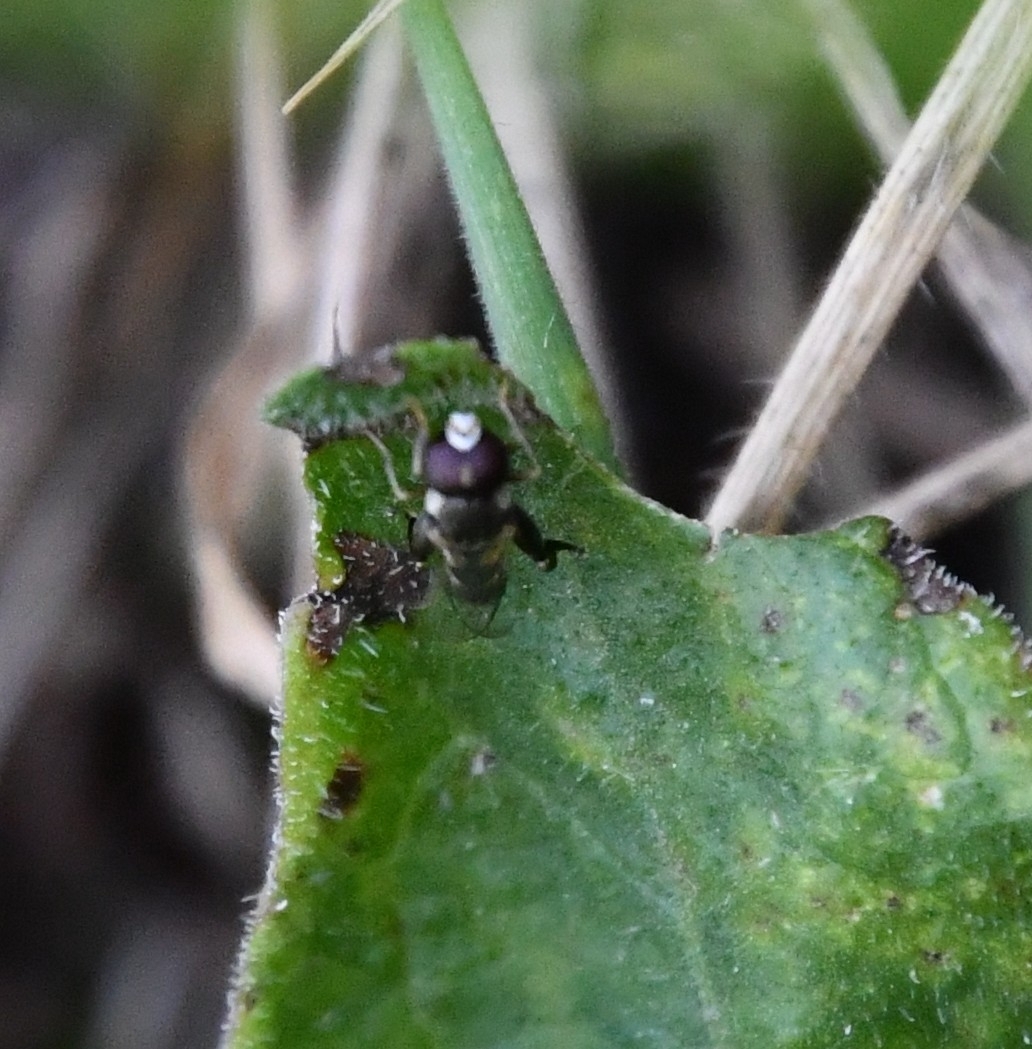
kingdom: Animalia
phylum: Arthropoda
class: Insecta
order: Diptera
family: Syrphidae
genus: Syritta
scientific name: Syritta pipiens
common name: Hover fly
